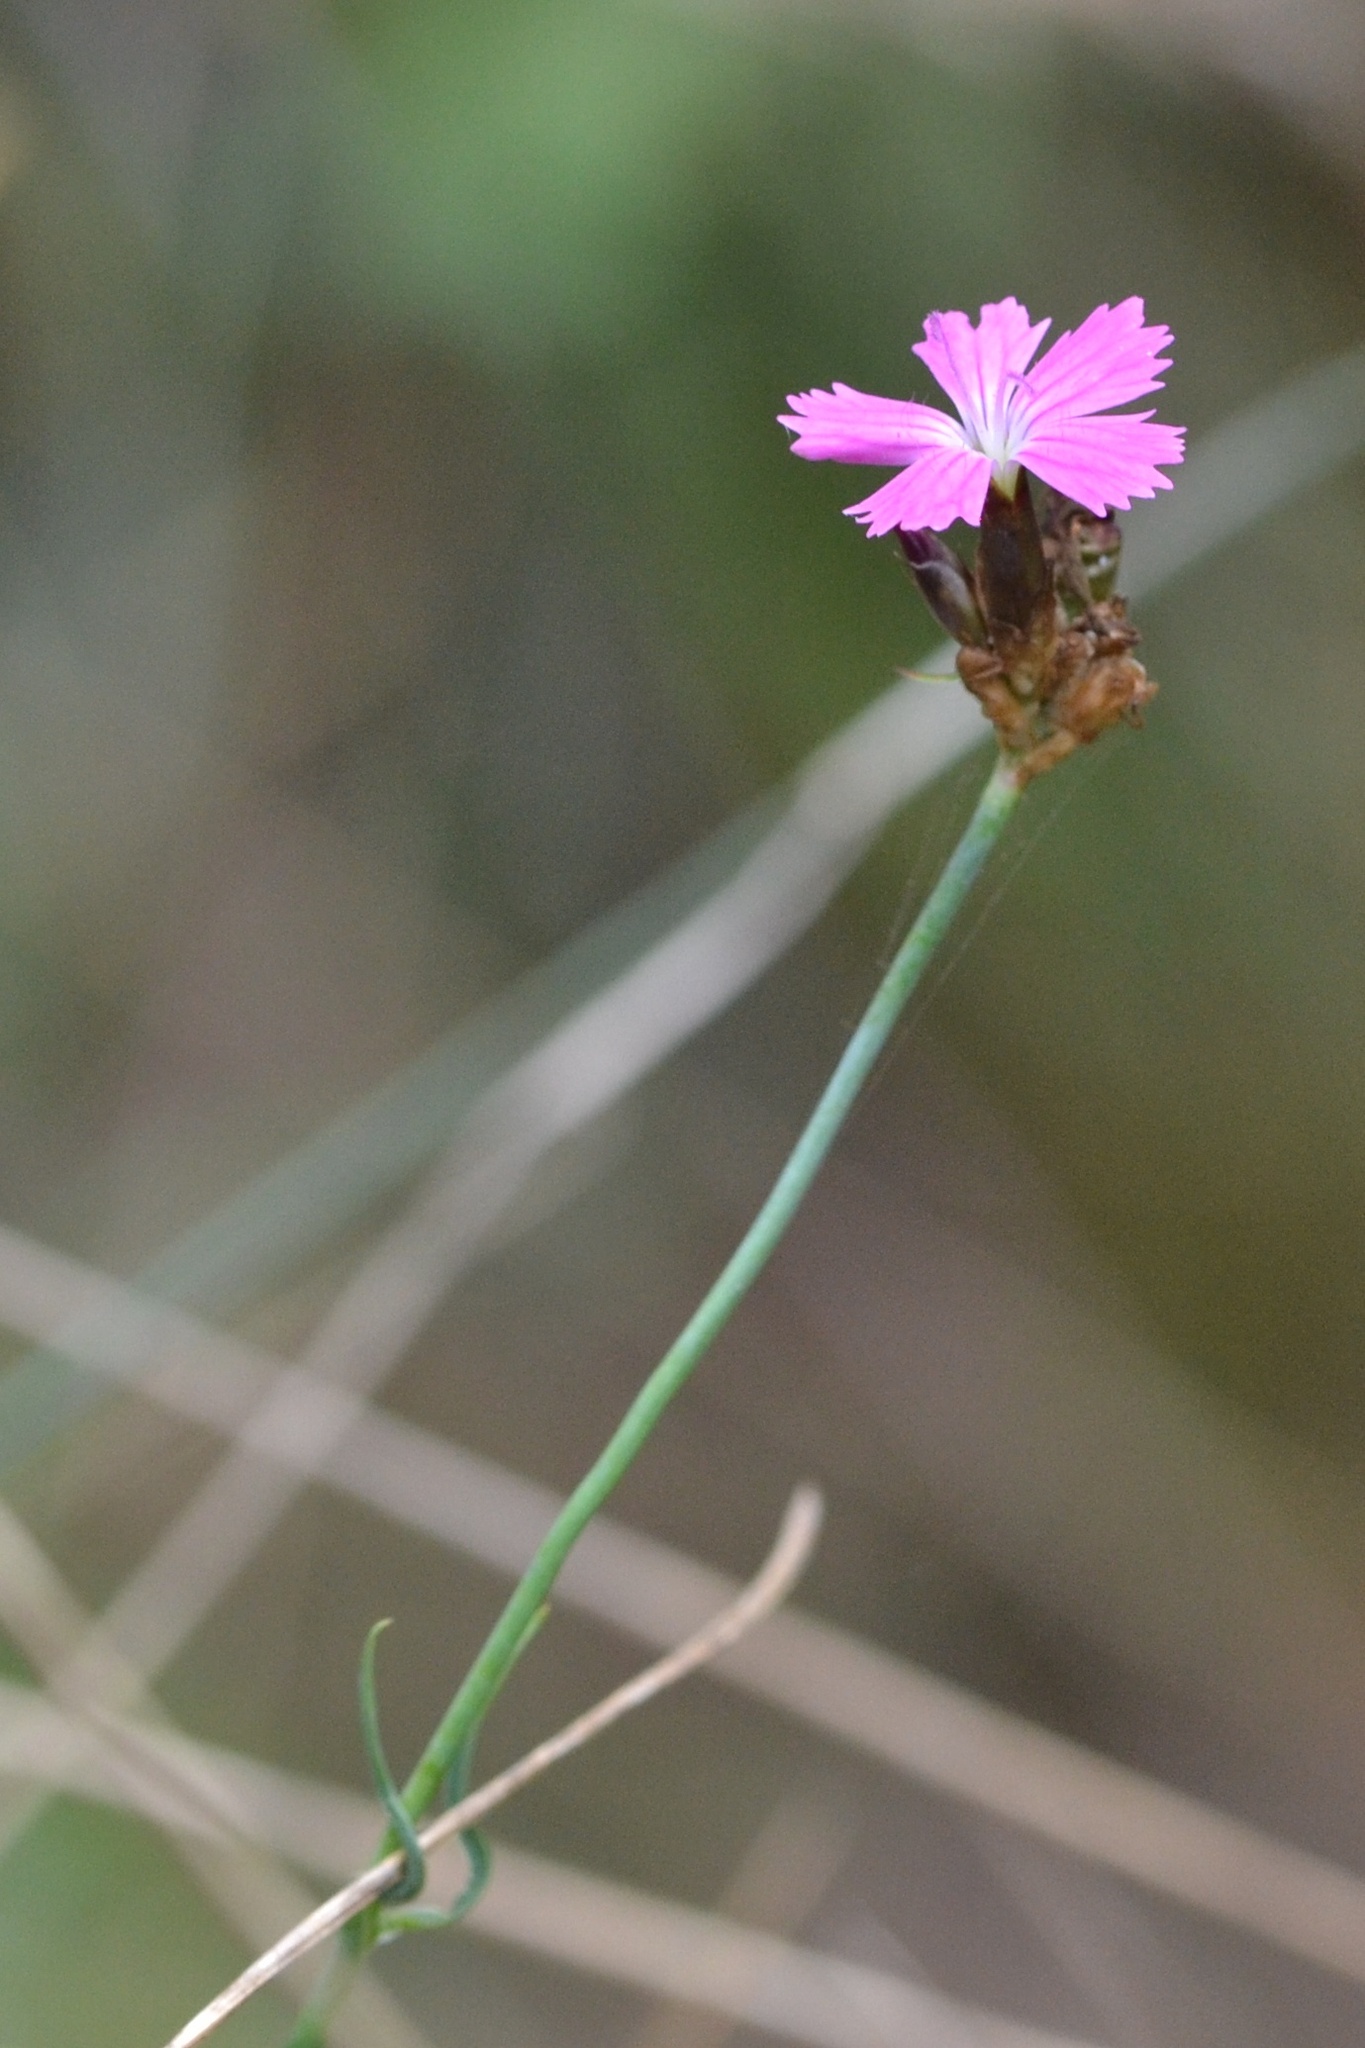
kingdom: Plantae
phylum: Tracheophyta
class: Magnoliopsida
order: Caryophyllales
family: Caryophyllaceae
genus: Dianthus
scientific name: Dianthus carthusianorum
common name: Carthusian pink
